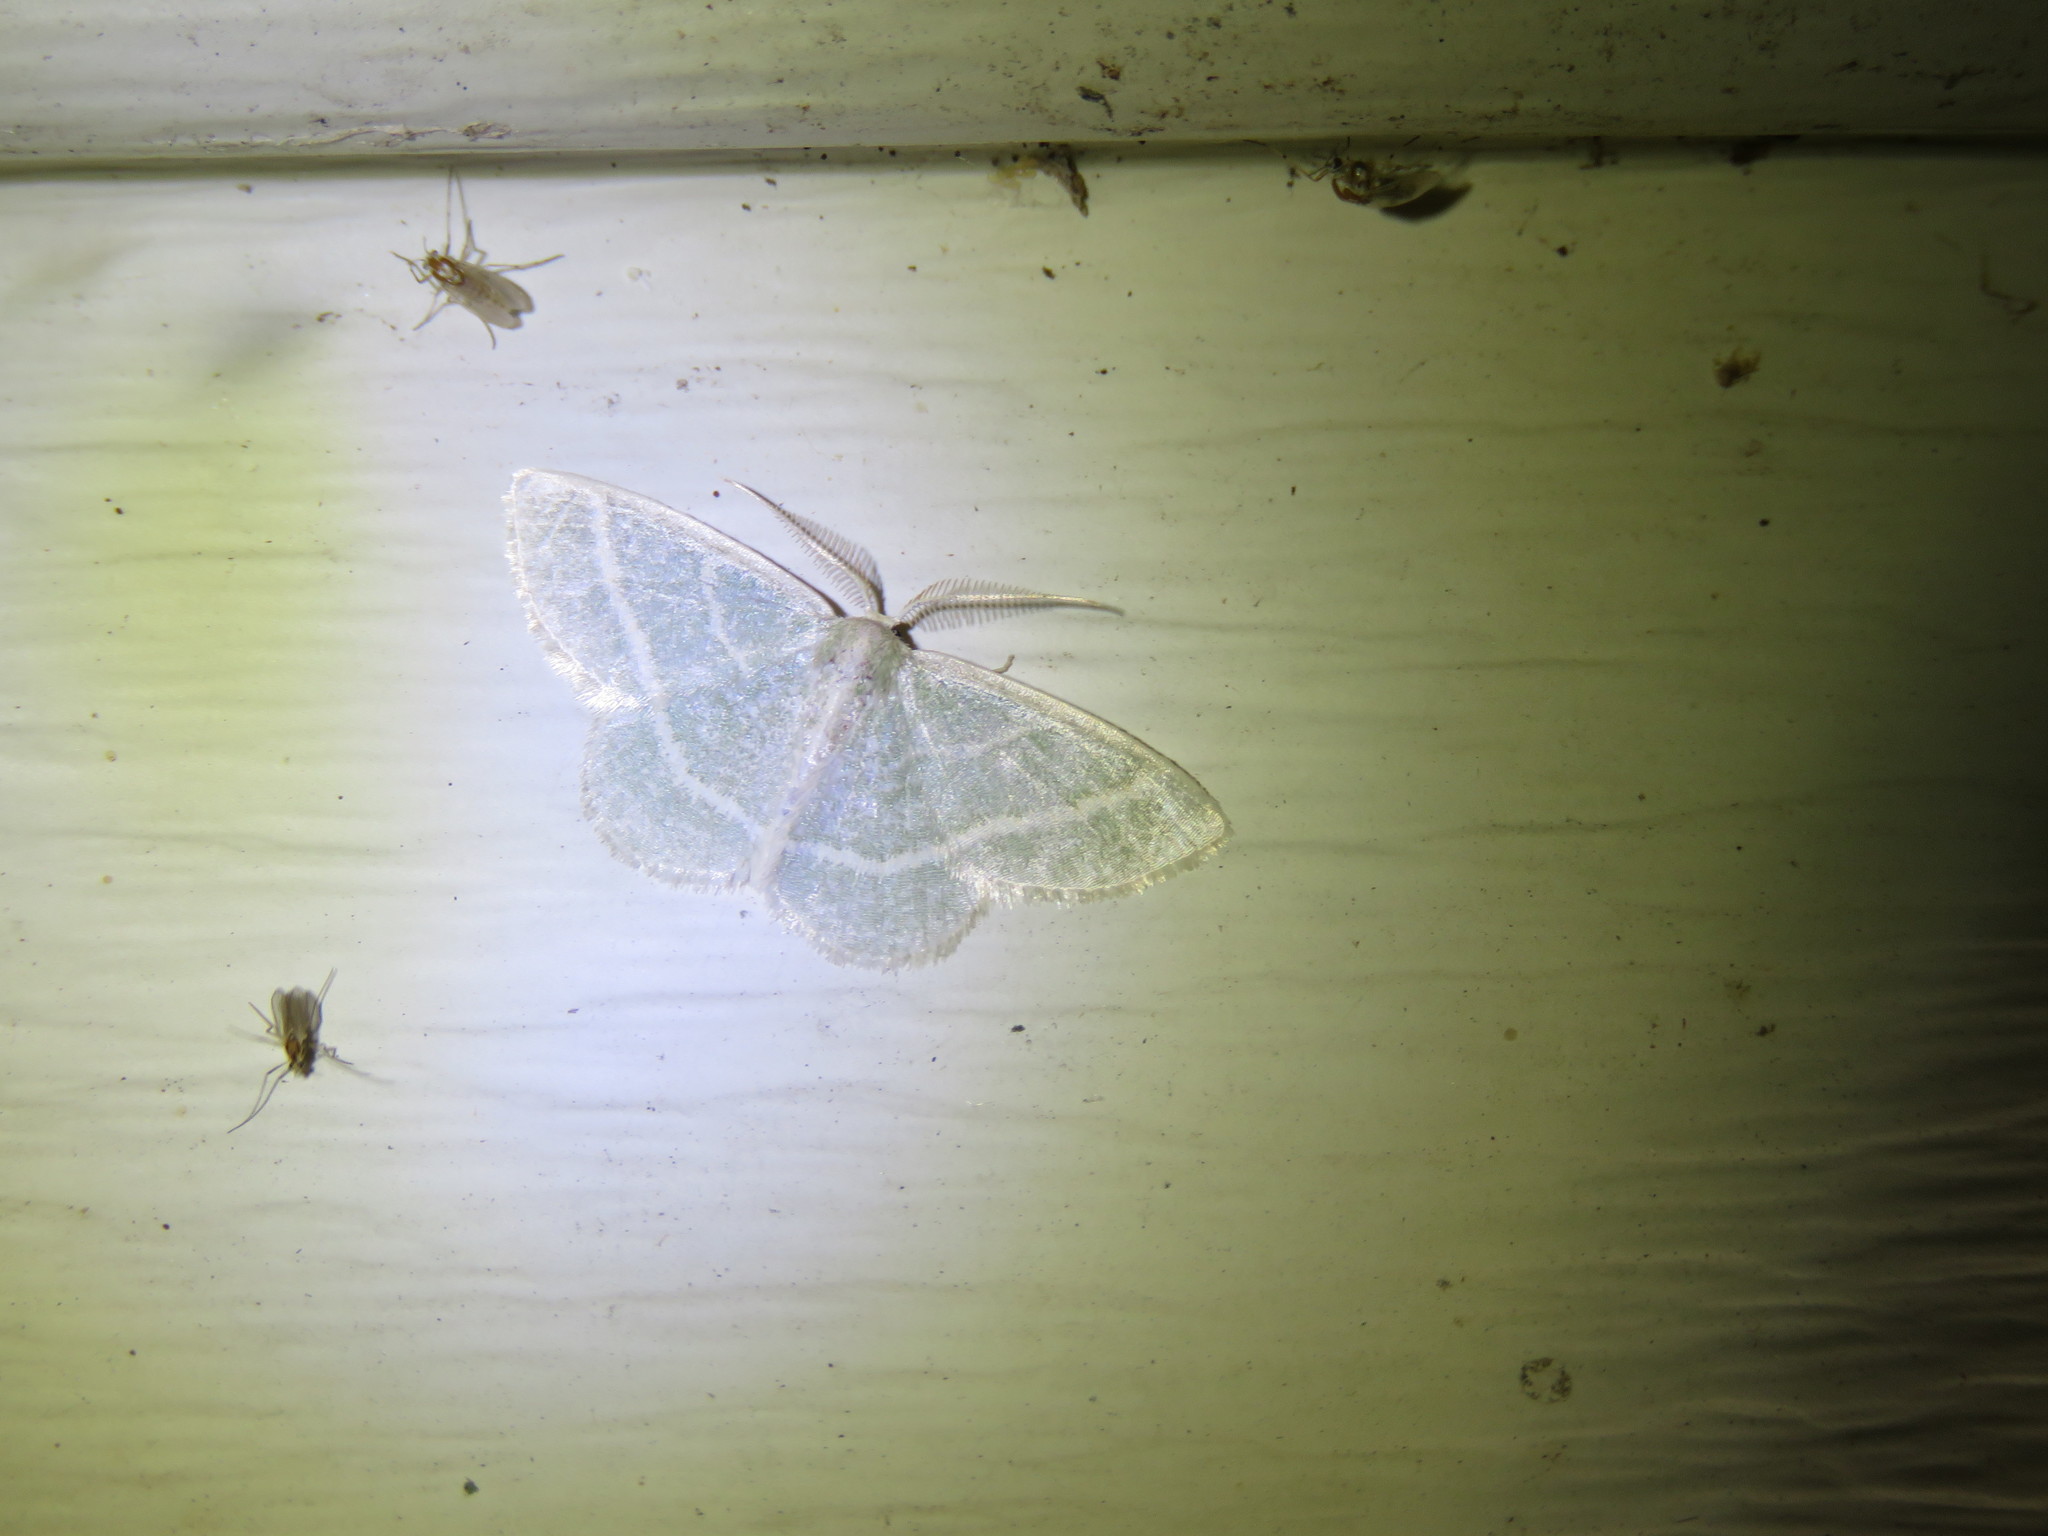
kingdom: Animalia
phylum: Arthropoda
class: Insecta
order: Lepidoptera
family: Geometridae
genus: Chlorochlamys
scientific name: Chlorochlamys chloroleucaria
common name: Blackberry looper
